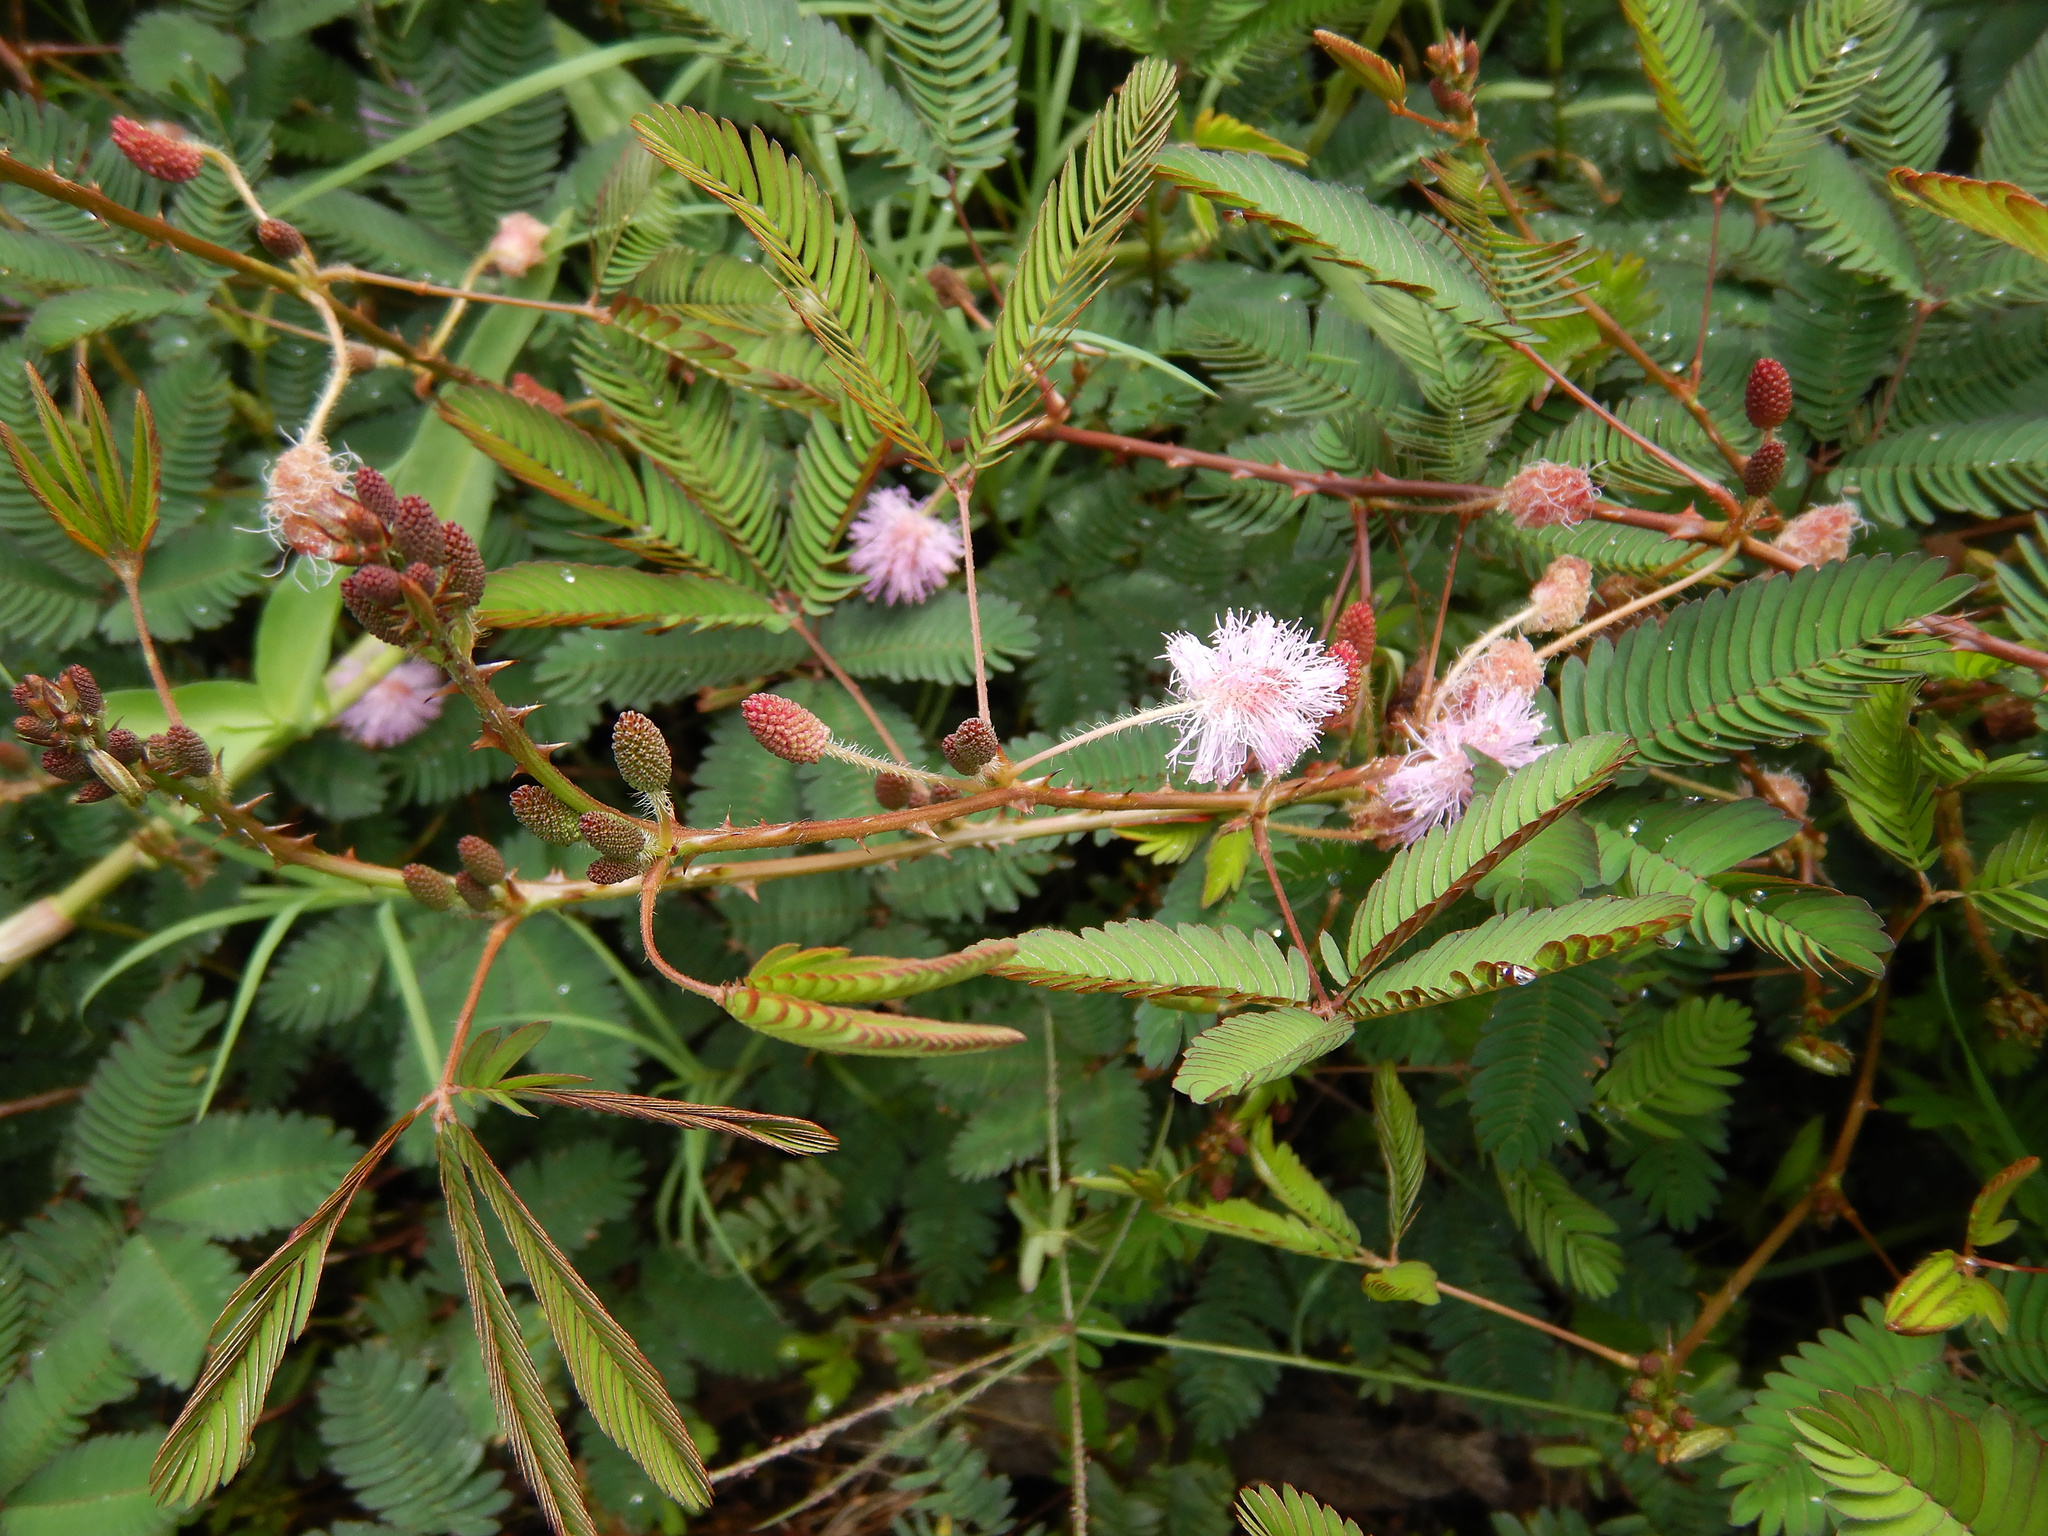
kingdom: Plantae
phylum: Tracheophyta
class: Magnoliopsida
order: Fabales
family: Fabaceae
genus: Mimosa
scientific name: Mimosa pudica
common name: Sensitive plant
